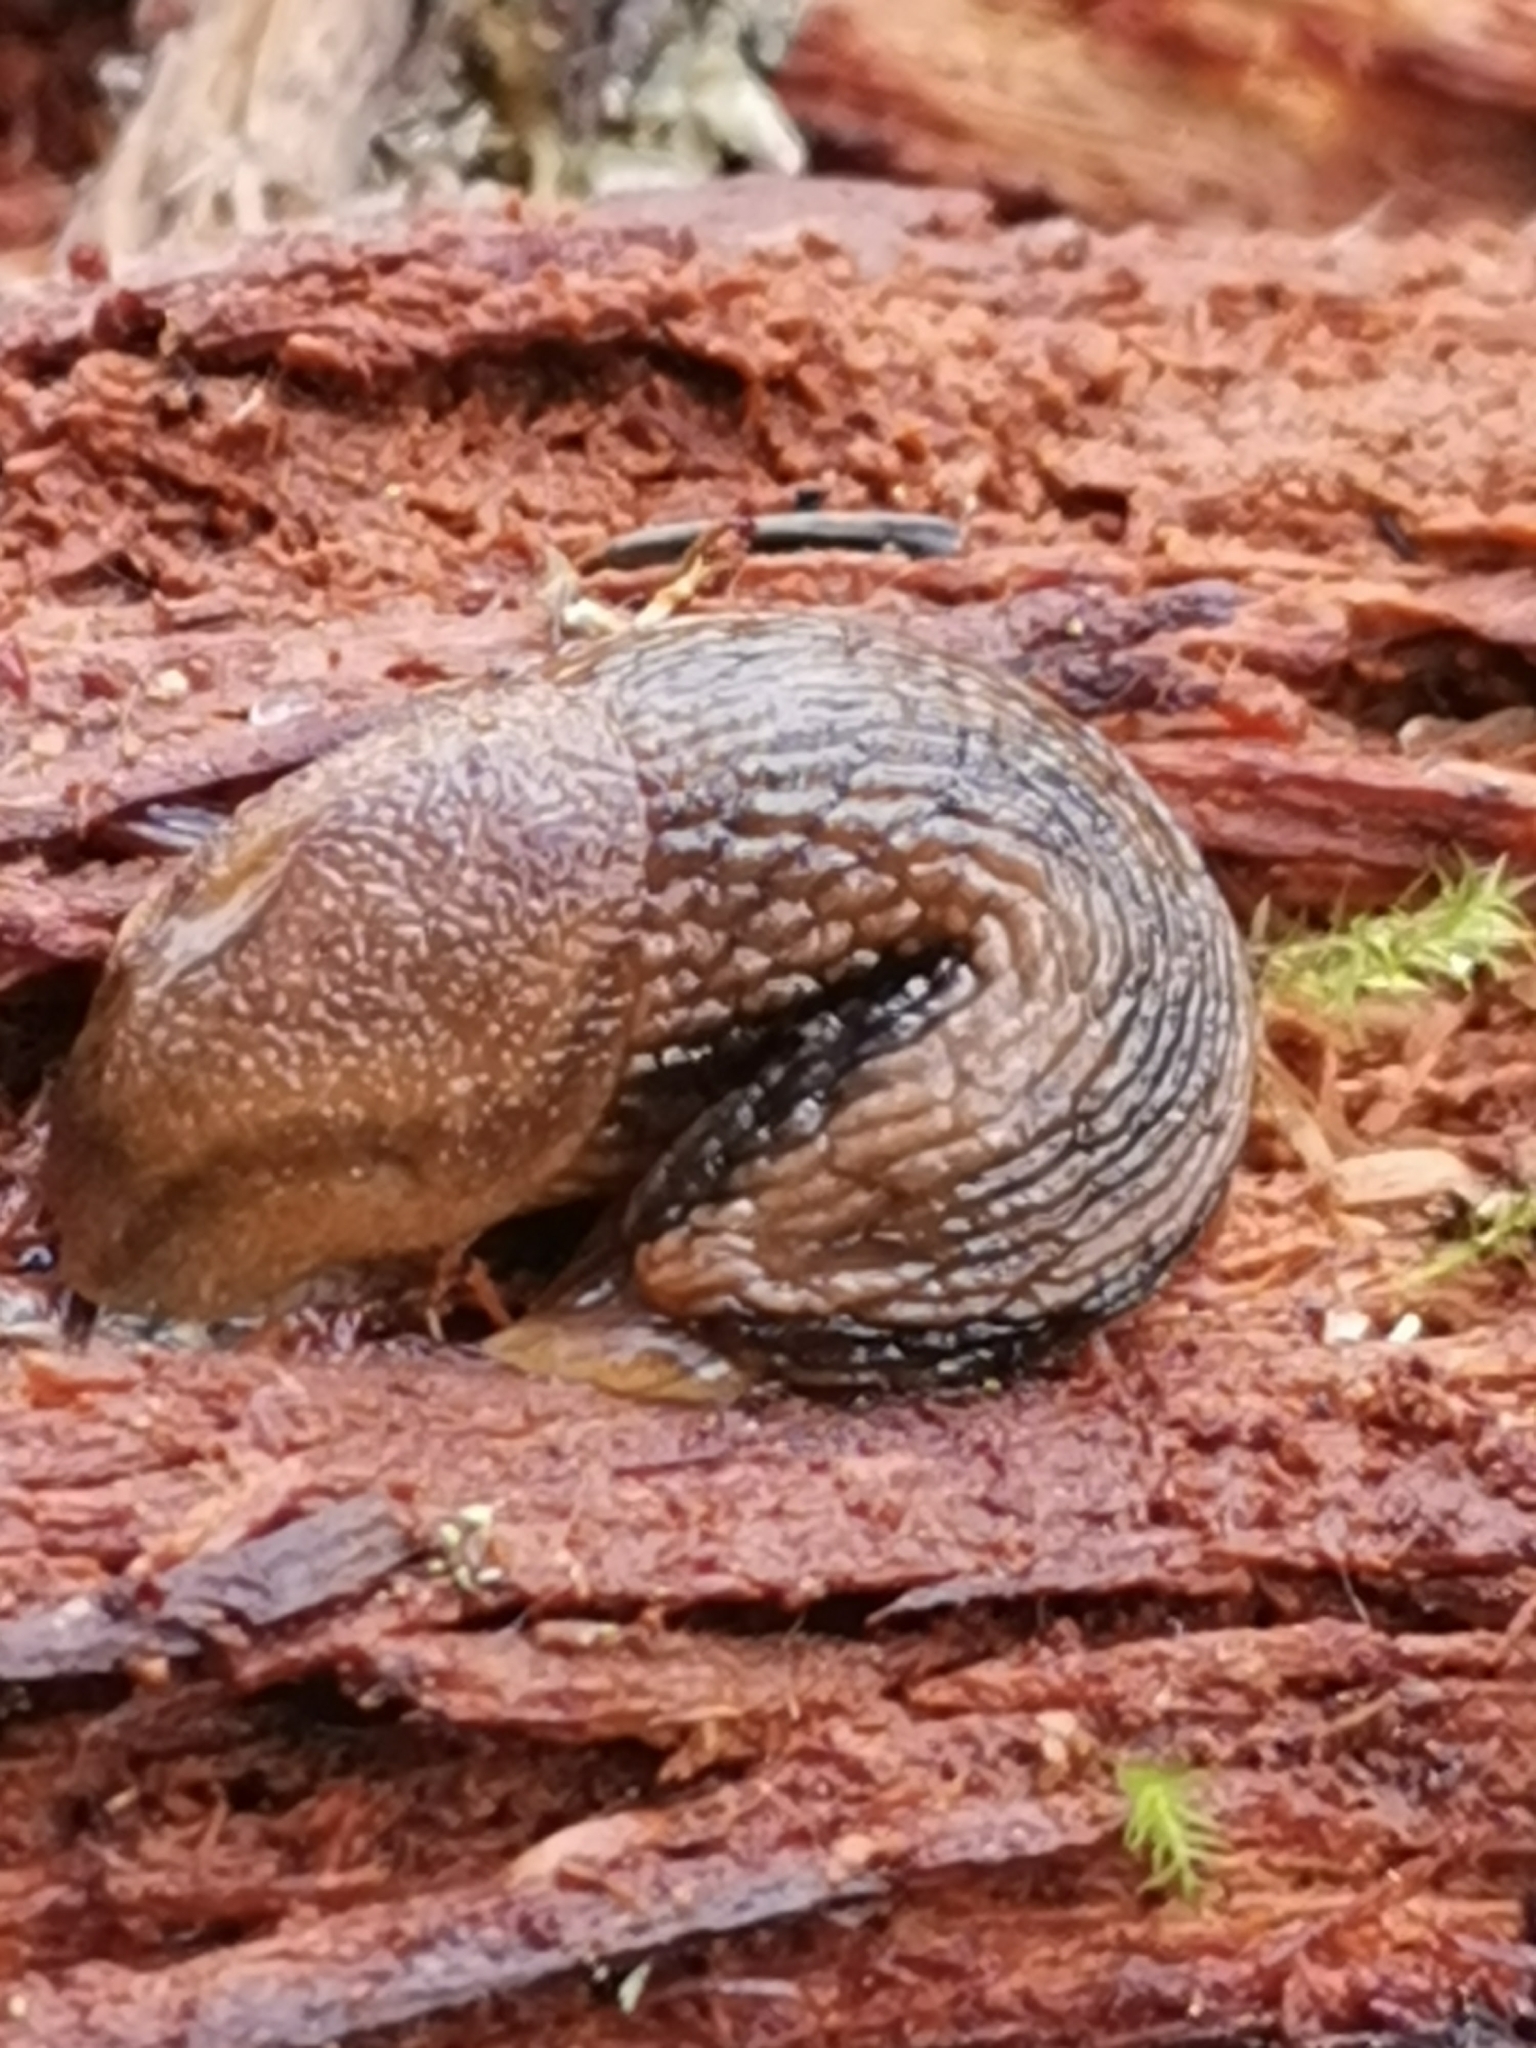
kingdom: Animalia
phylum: Mollusca
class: Gastropoda
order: Stylommatophora
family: Arionidae
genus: Arion
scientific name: Arion fuscus
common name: Northern dusky slug
